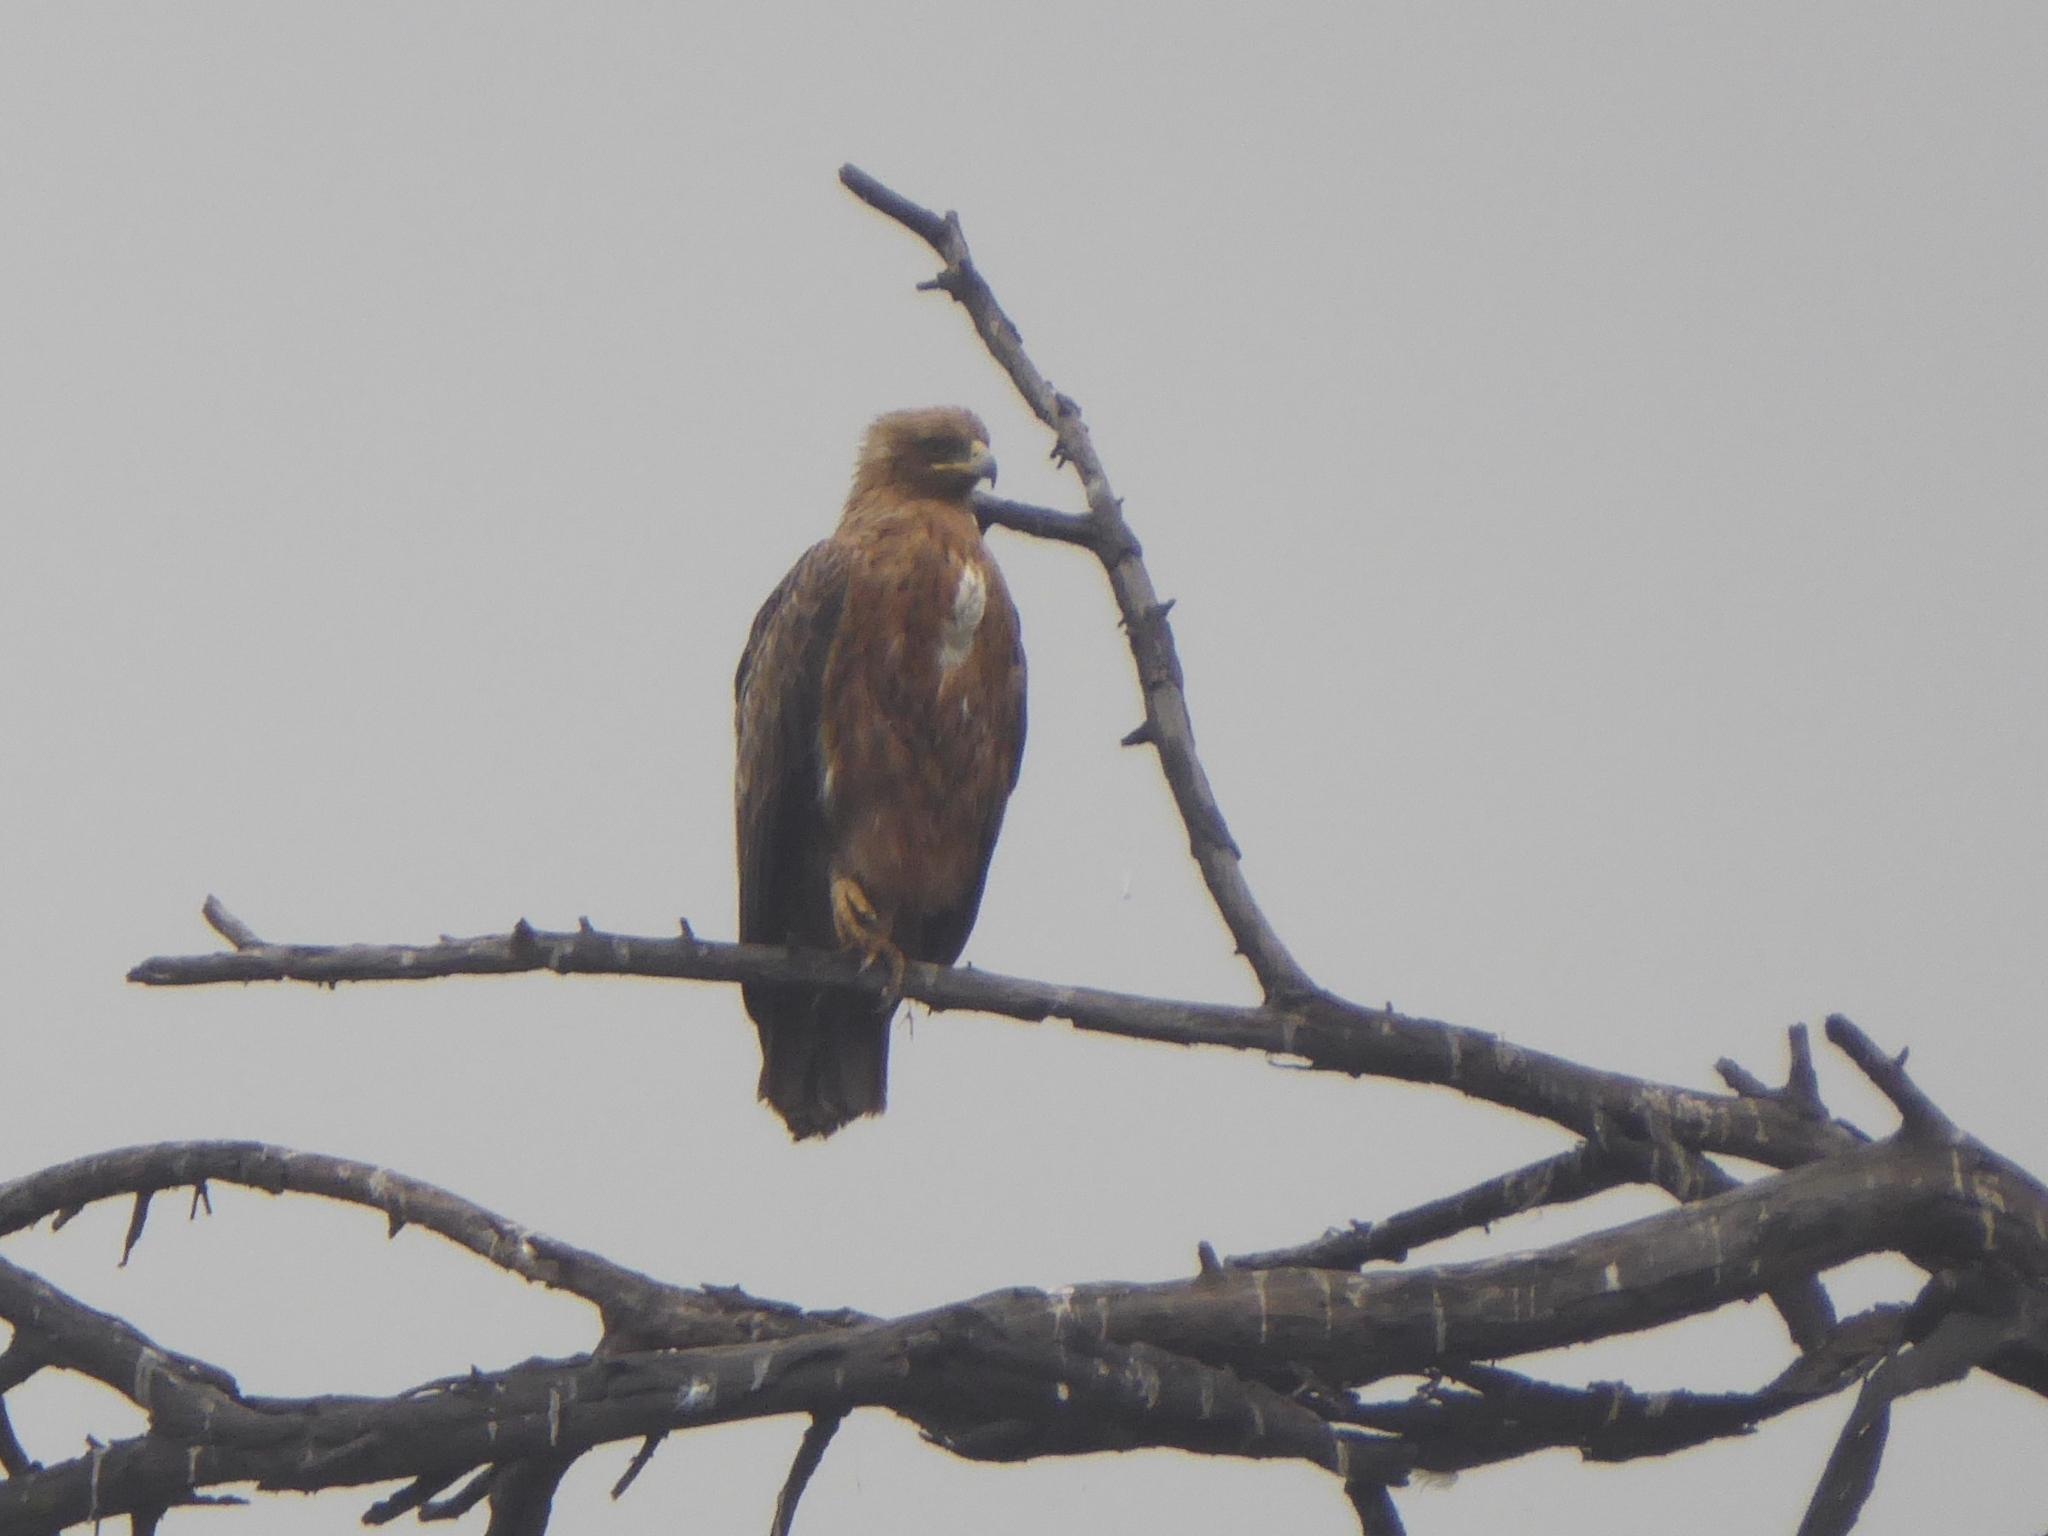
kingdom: Animalia
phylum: Chordata
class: Aves
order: Accipitriformes
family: Accipitridae
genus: Aquila
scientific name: Aquila rapax
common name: Tawny eagle
